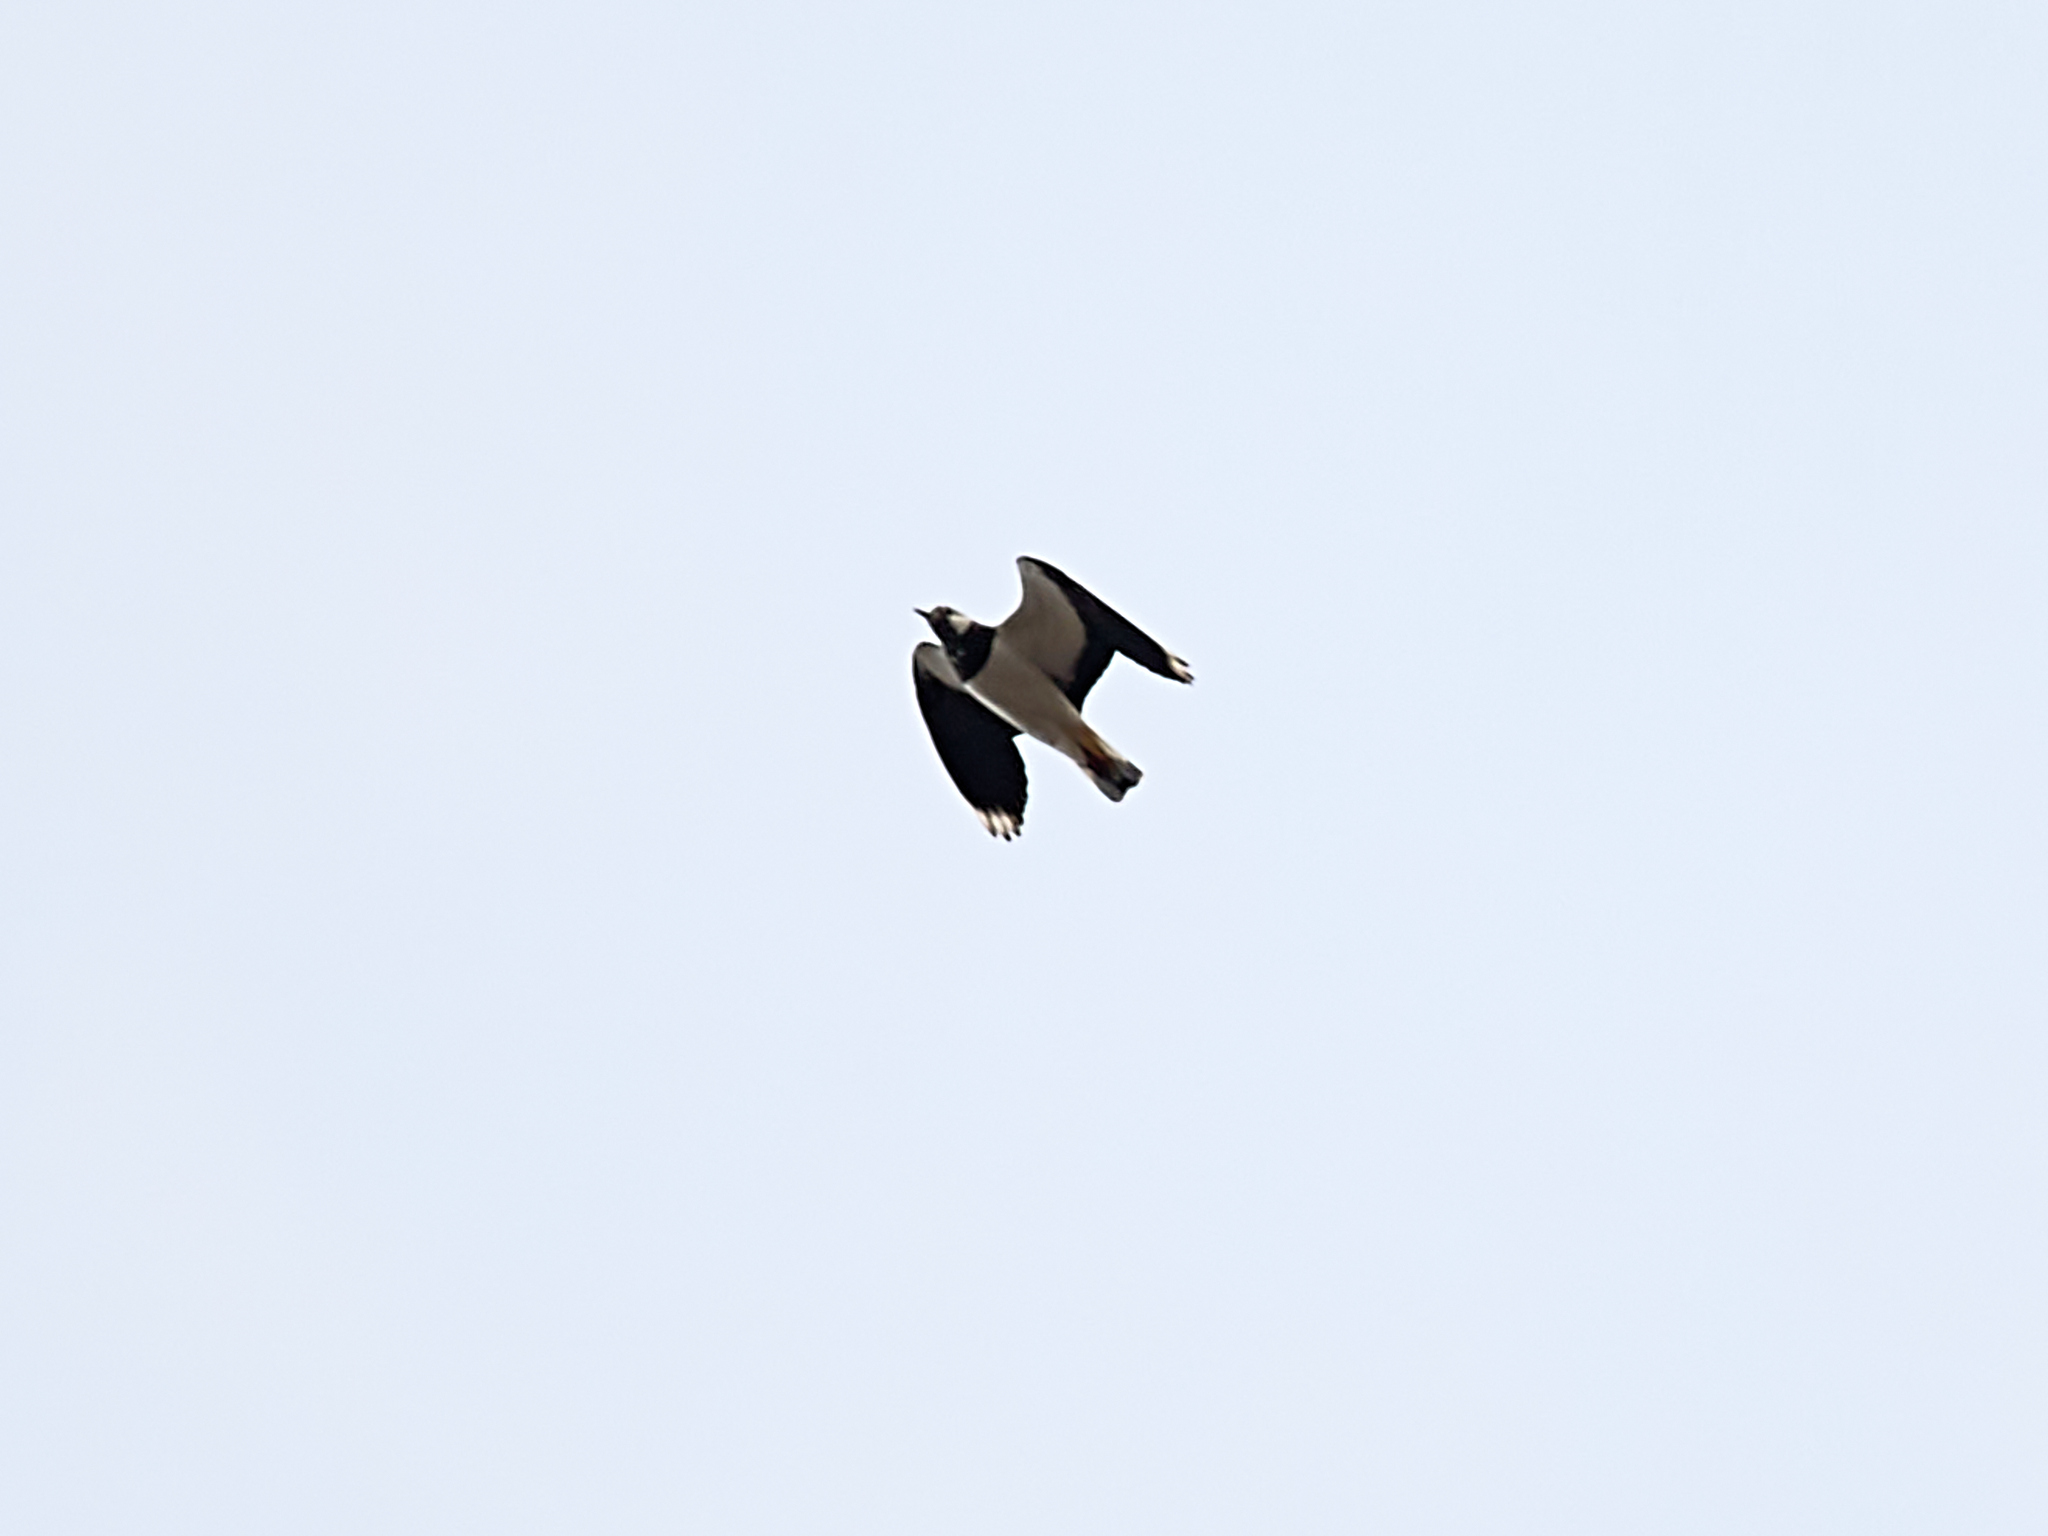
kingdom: Animalia
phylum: Chordata
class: Aves
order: Charadriiformes
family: Charadriidae
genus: Vanellus
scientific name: Vanellus vanellus
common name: Northern lapwing
